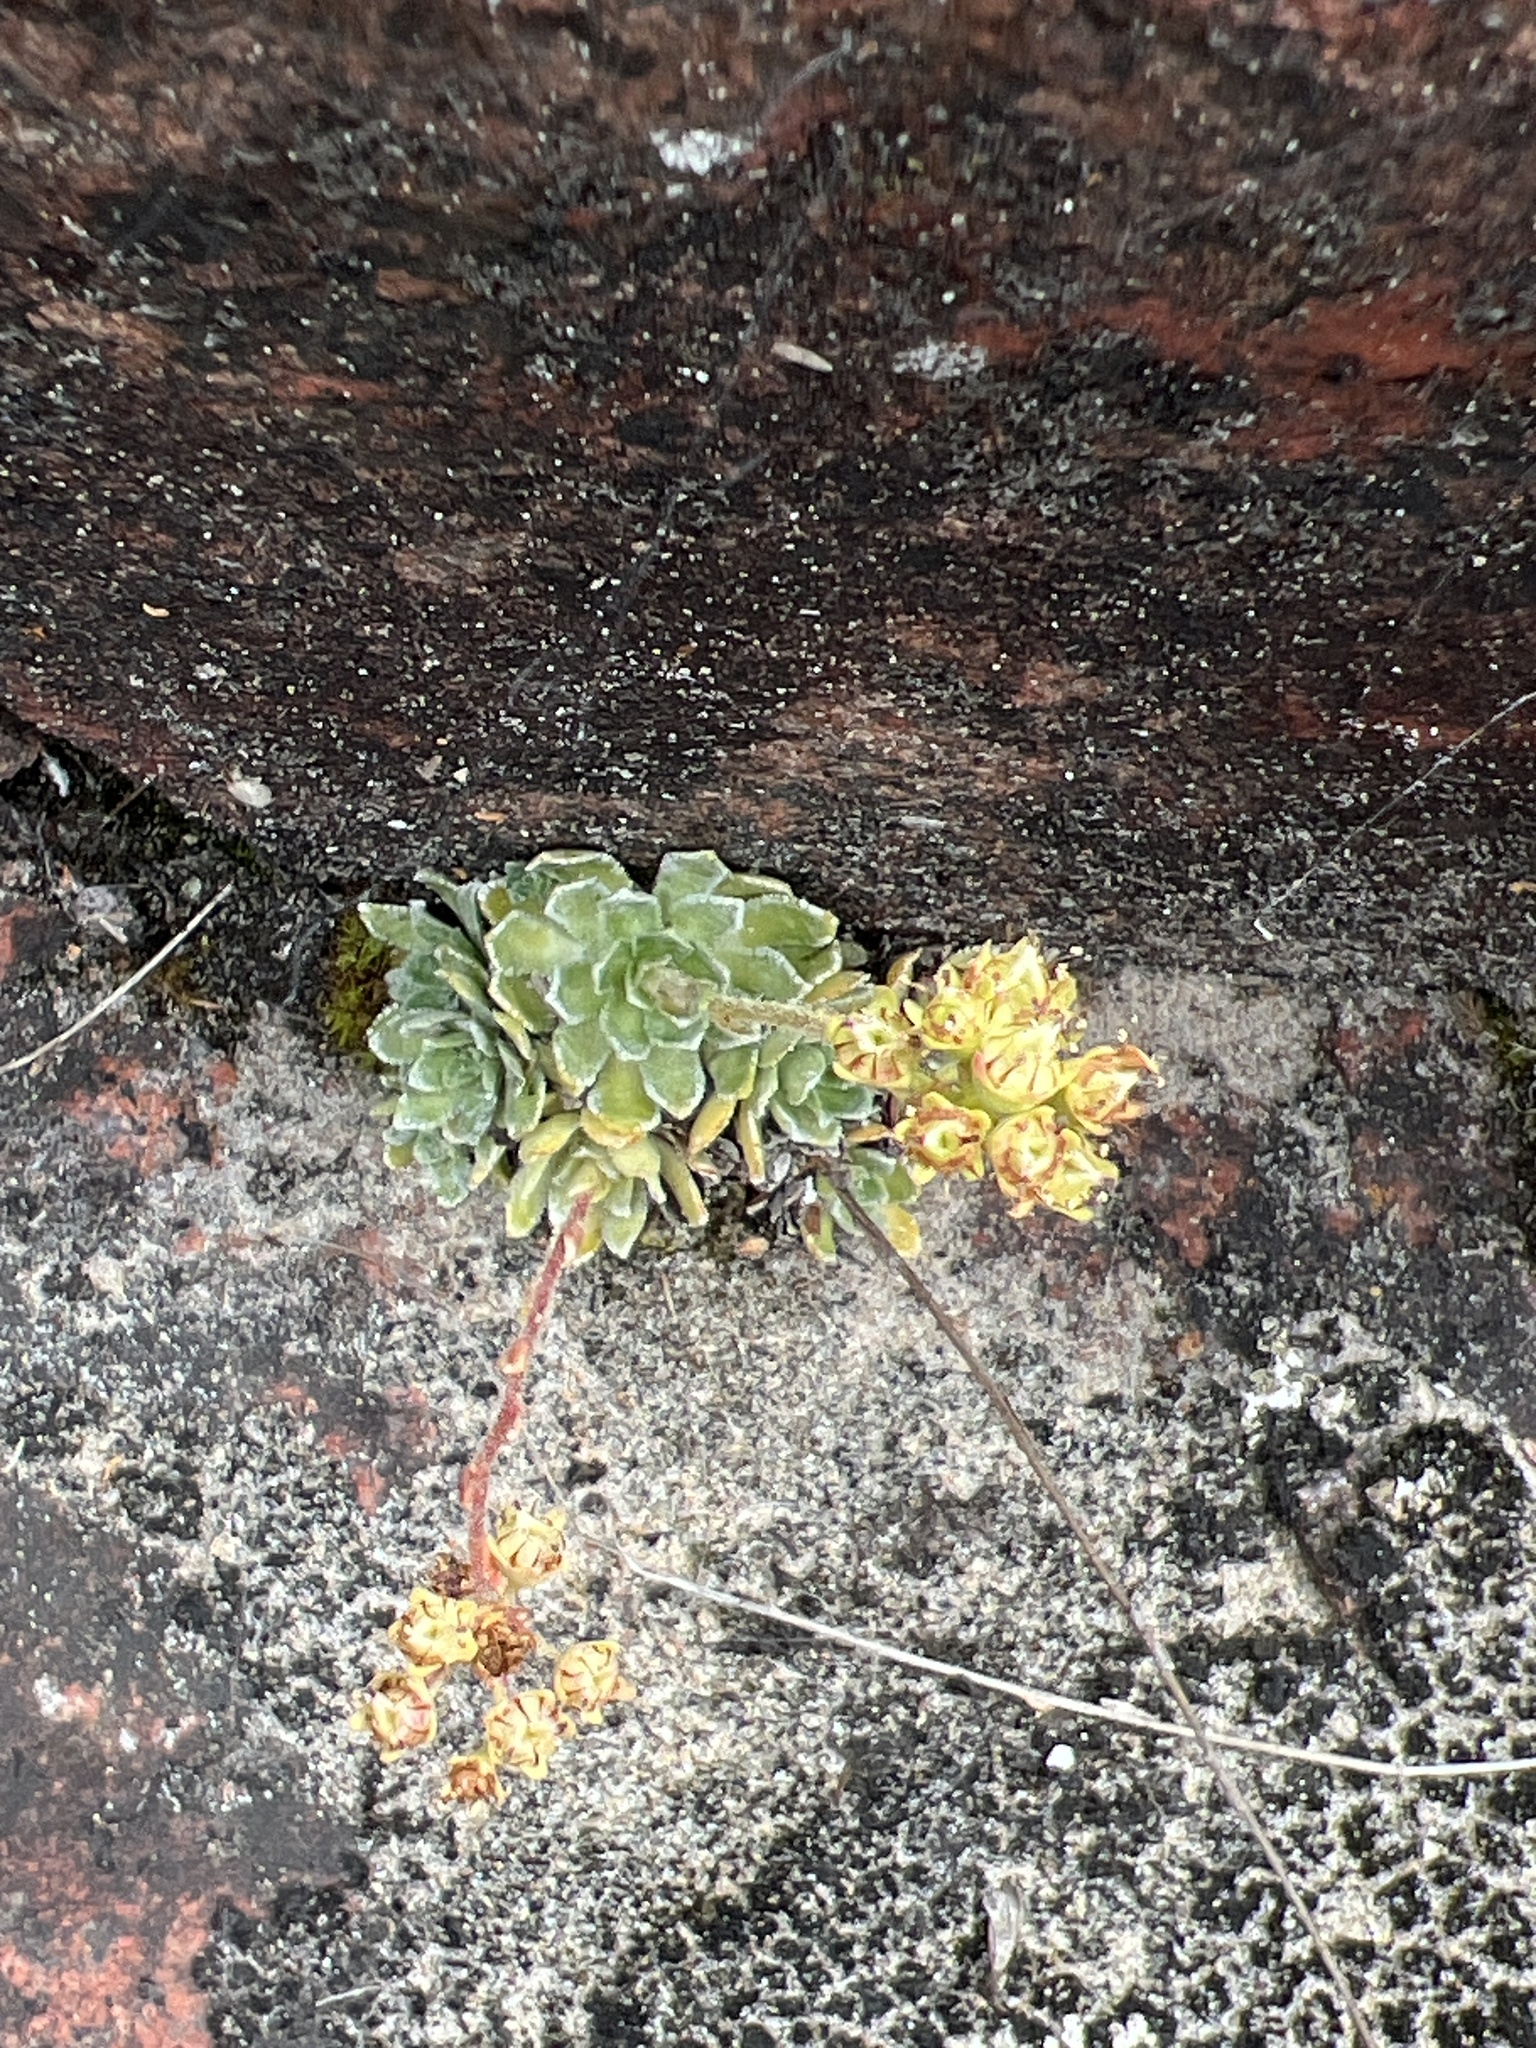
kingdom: Plantae
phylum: Tracheophyta
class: Magnoliopsida
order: Saxifragales
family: Saxifragaceae
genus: Saxifraga
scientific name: Saxifraga paniculata
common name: Livelong saxifrage
